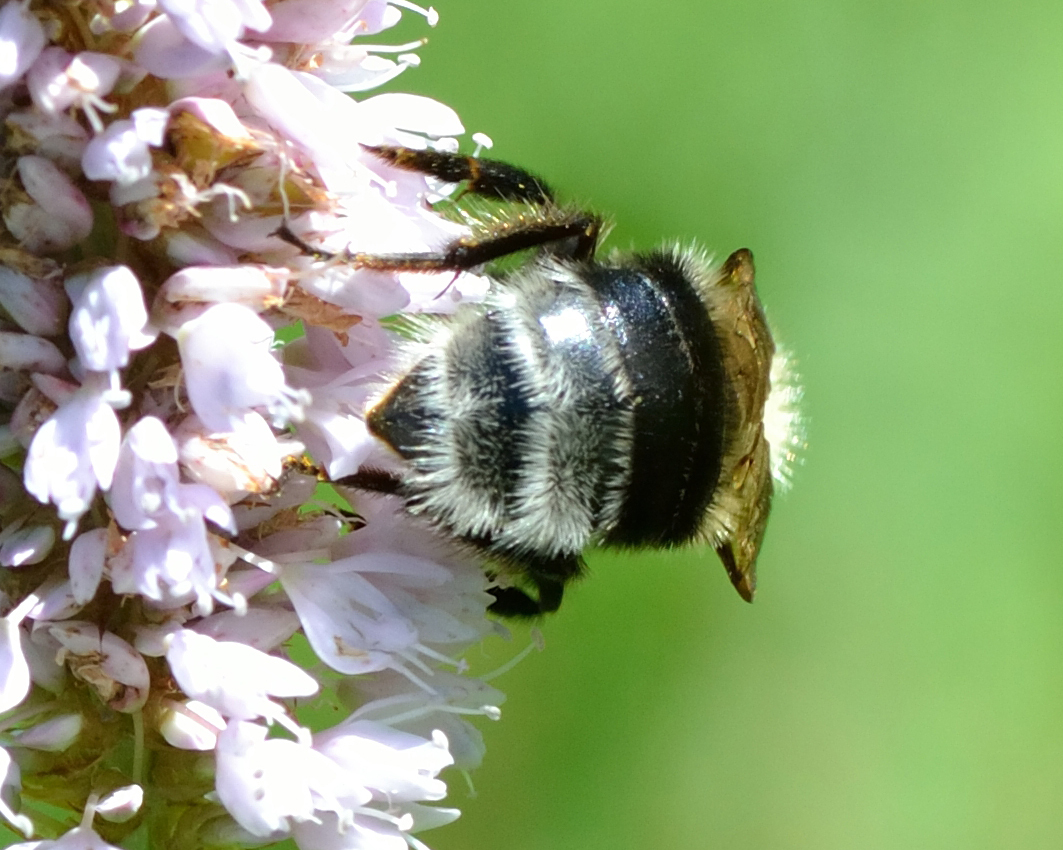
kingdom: Animalia
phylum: Arthropoda
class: Insecta
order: Hymenoptera
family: Apidae
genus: Bombus
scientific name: Bombus semenoviellus
